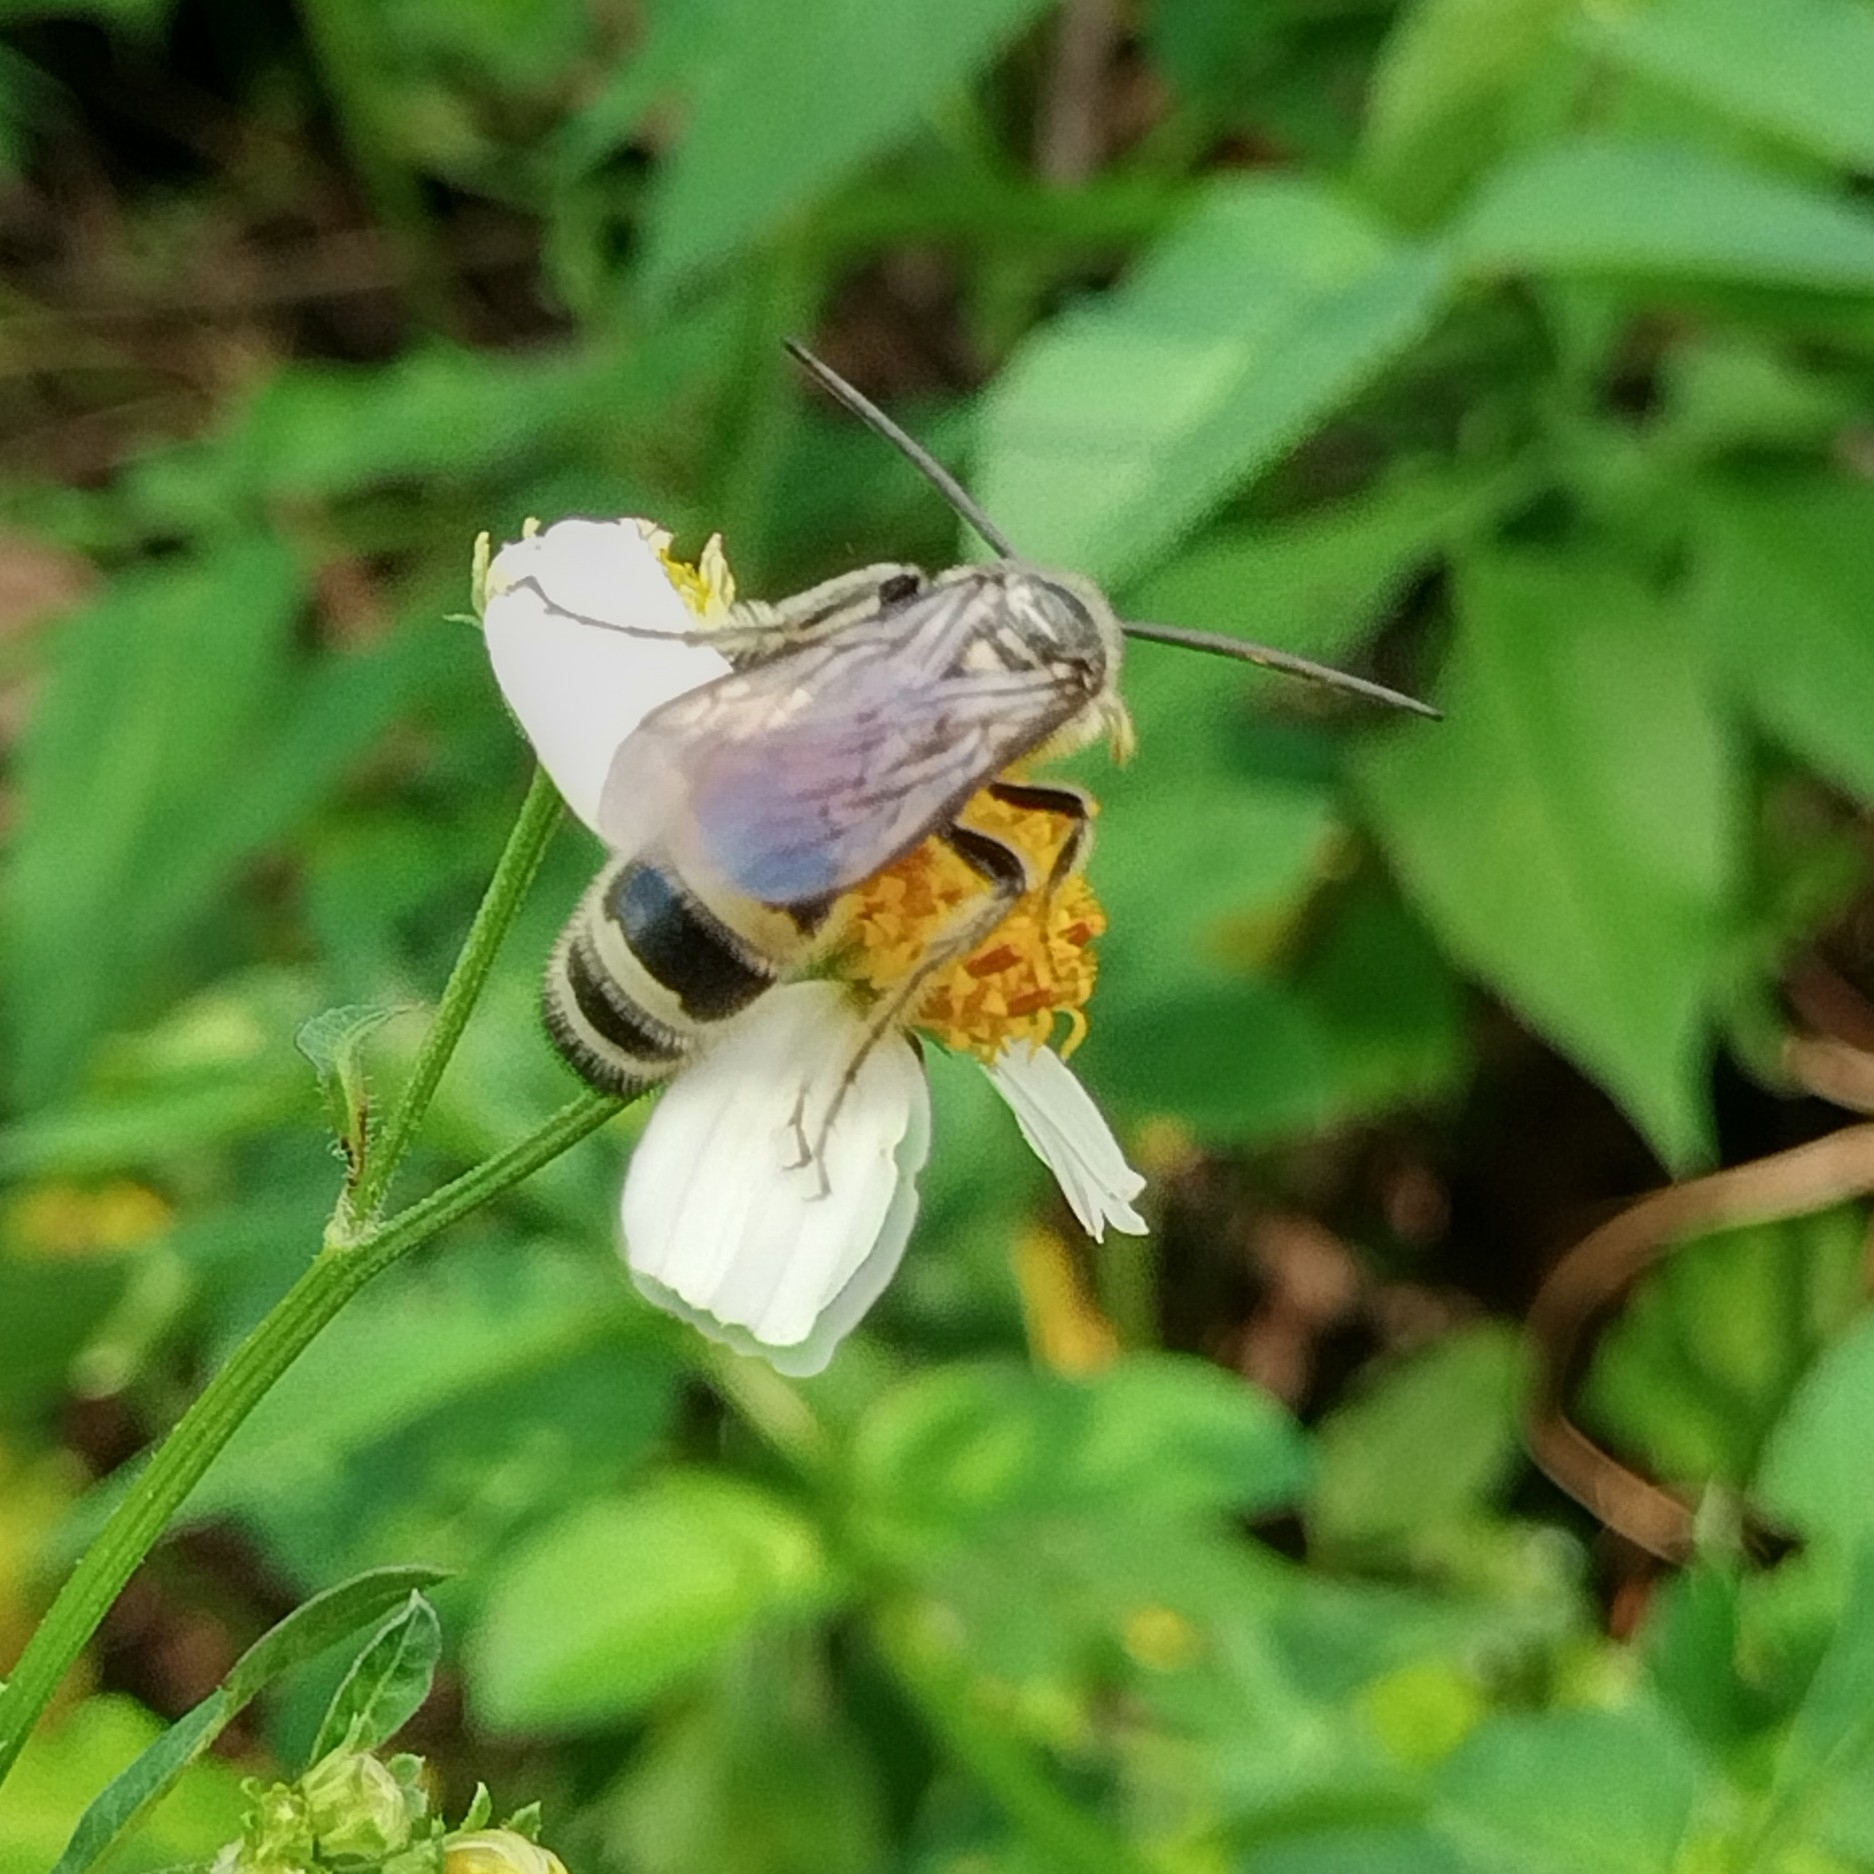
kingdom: Animalia
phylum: Arthropoda
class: Insecta
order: Hymenoptera
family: Scoliidae
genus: Dielis
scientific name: Dielis
